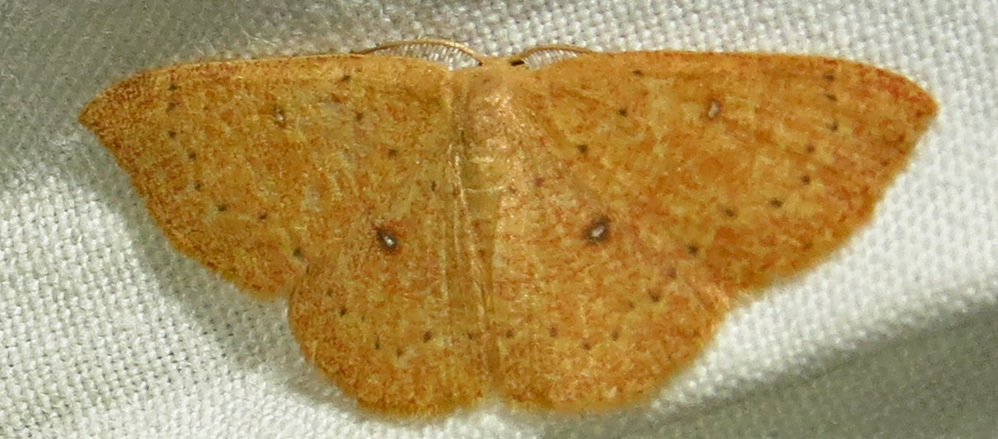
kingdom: Animalia
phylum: Arthropoda
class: Insecta
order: Lepidoptera
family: Geometridae
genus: Cyclophora
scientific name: Cyclophora packardi
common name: Packard's wave
